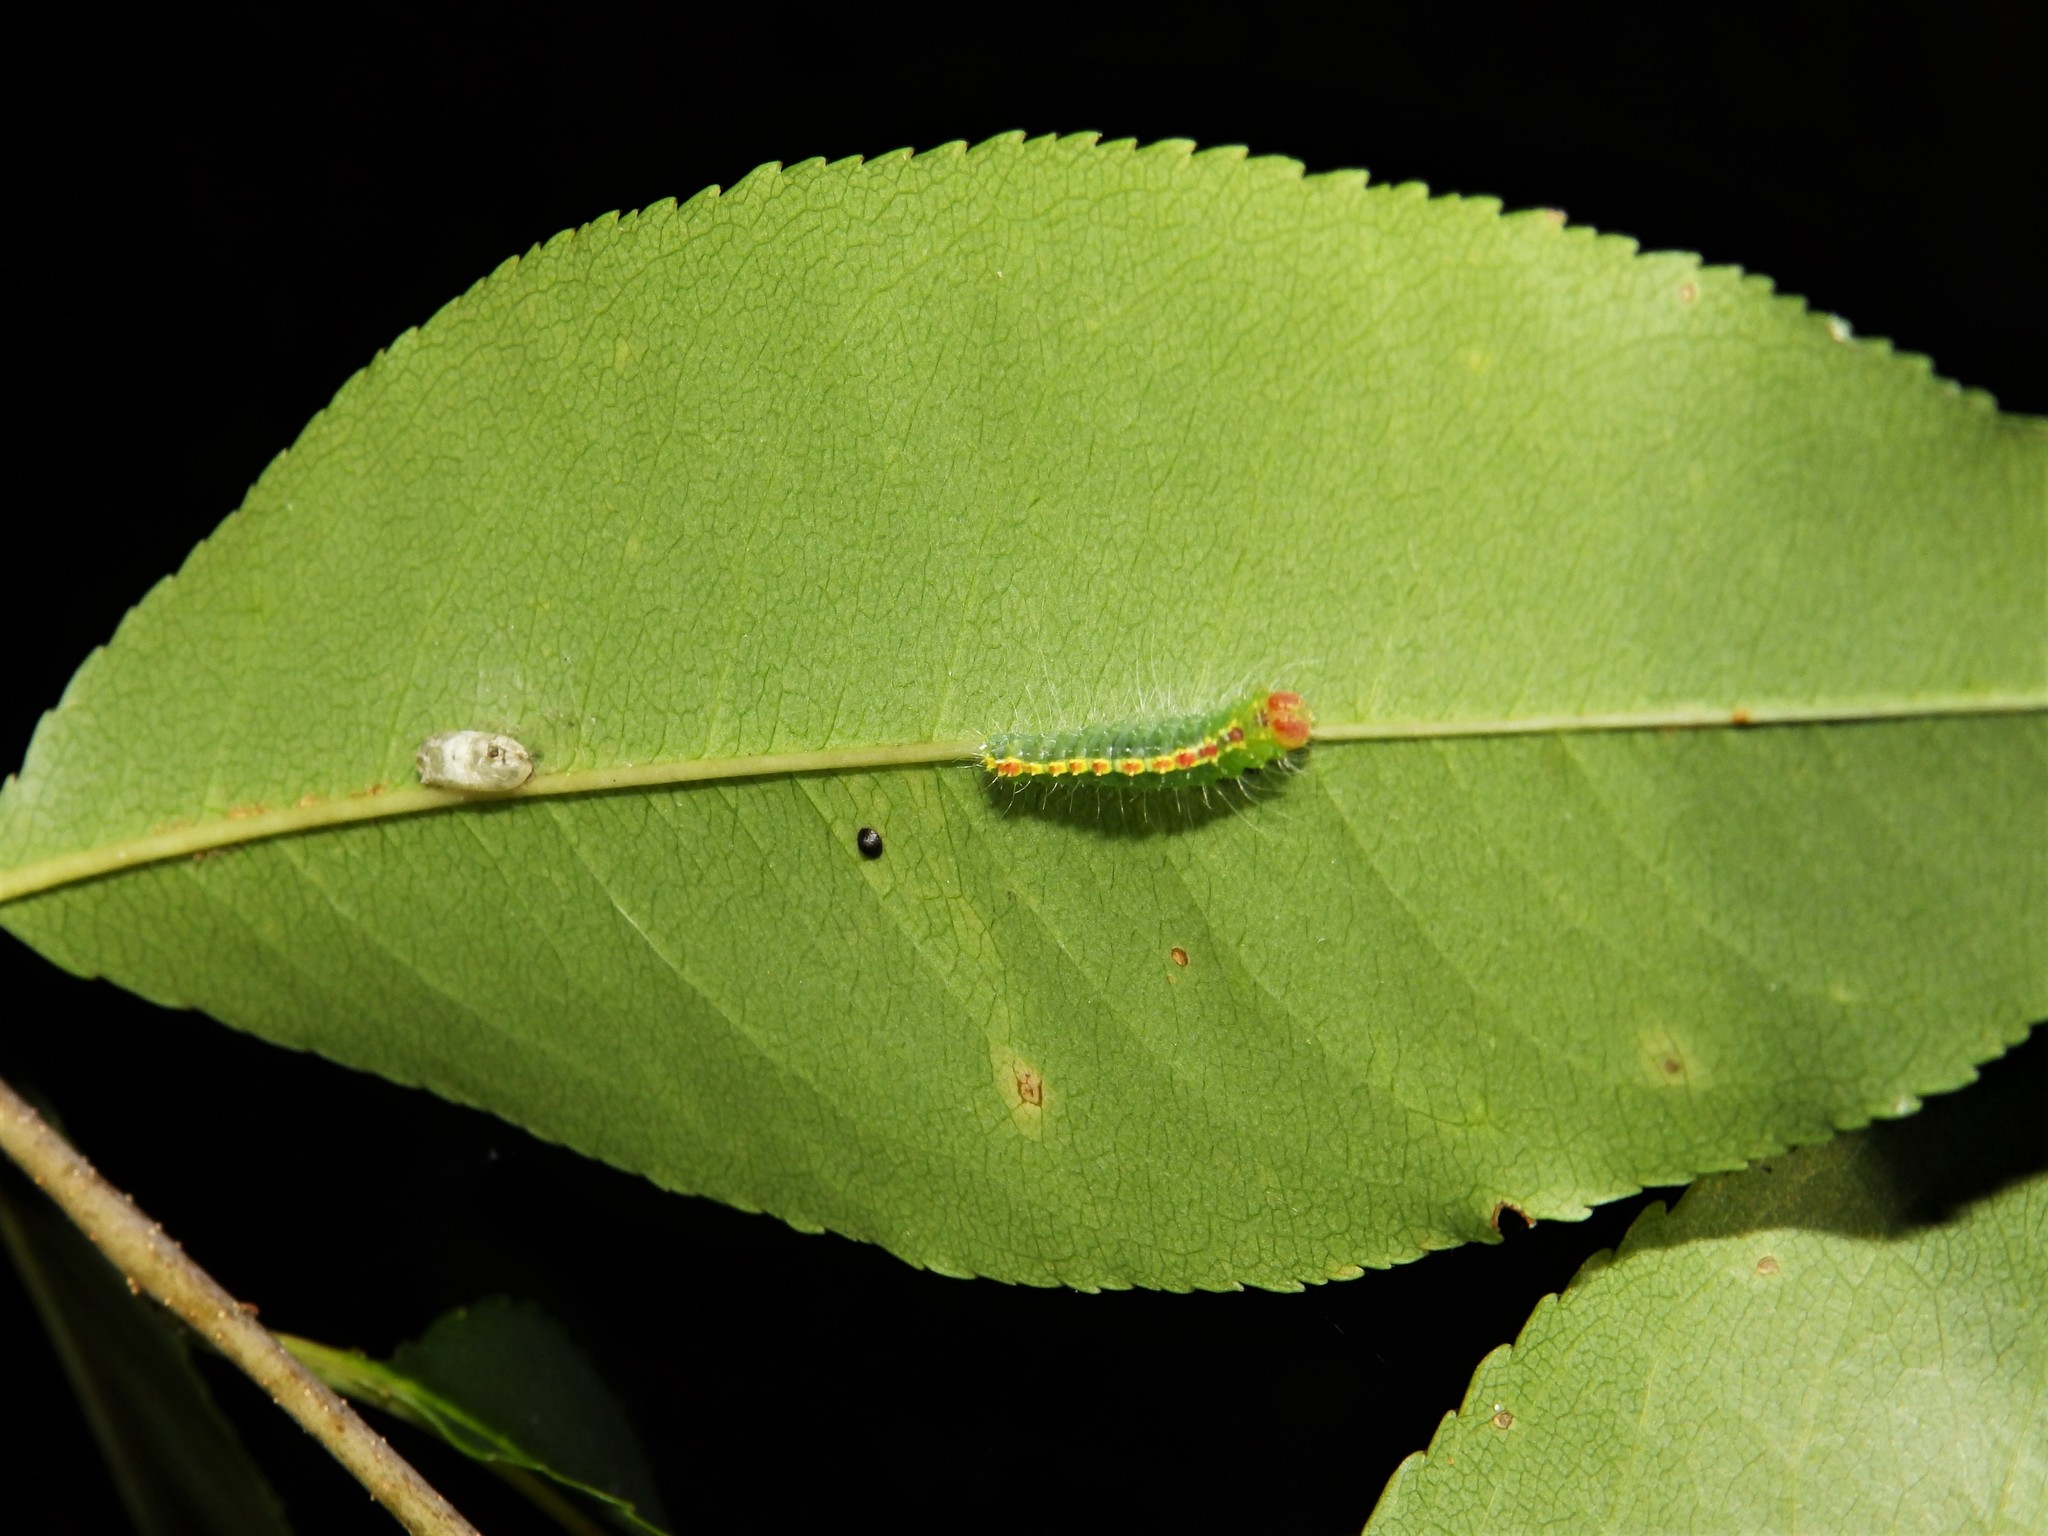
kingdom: Animalia
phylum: Arthropoda
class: Insecta
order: Lepidoptera
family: Noctuidae
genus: Acronicta
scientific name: Acronicta hasta
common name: Cherry dagger
